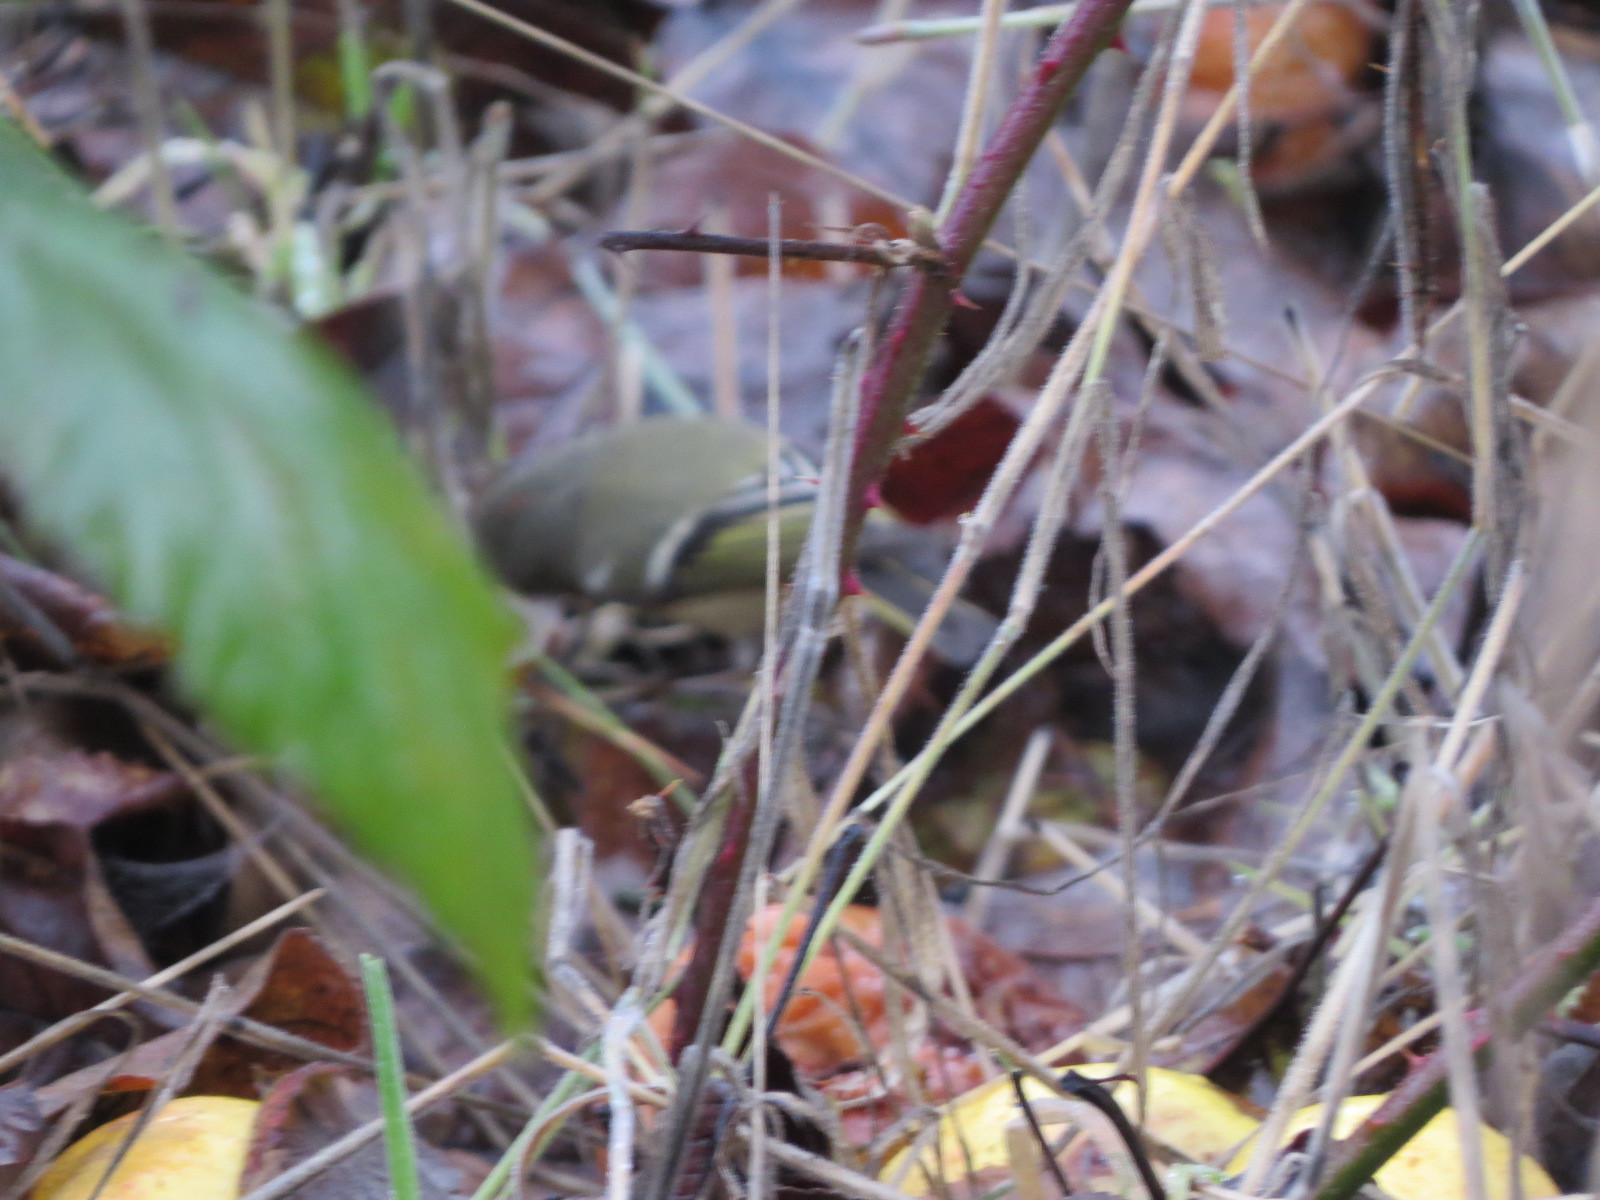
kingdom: Animalia
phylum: Chordata
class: Aves
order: Passeriformes
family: Regulidae
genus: Regulus
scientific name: Regulus calendula
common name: Ruby-crowned kinglet
